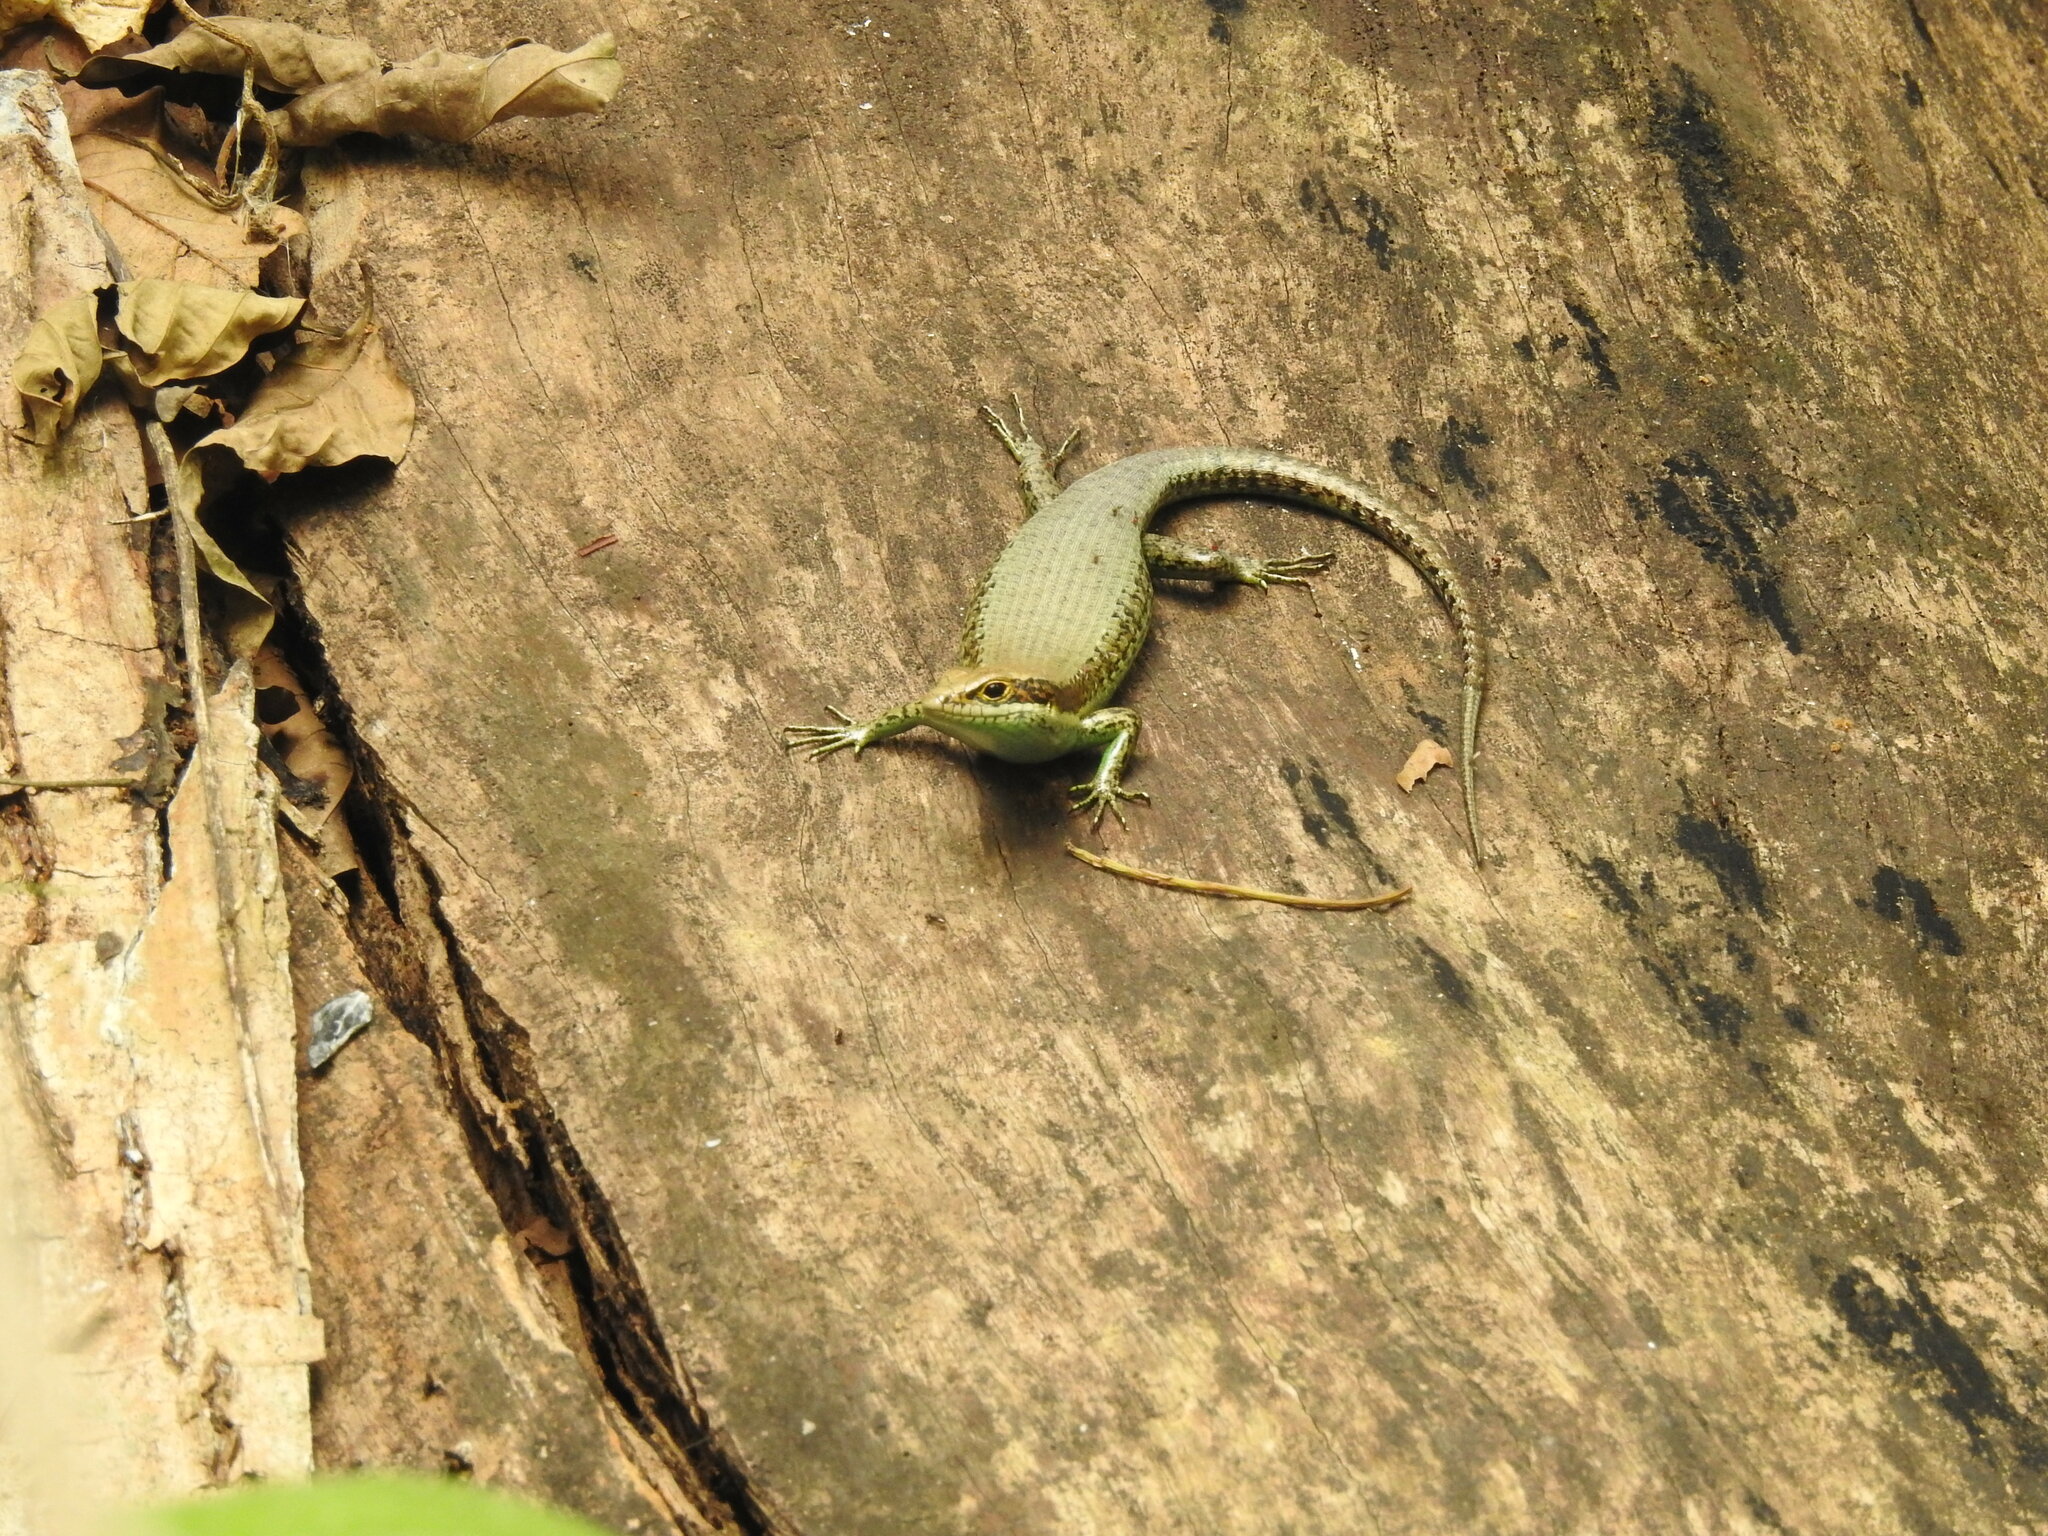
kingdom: Animalia
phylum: Chordata
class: Squamata
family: Scincidae
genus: Trachylepis
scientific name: Trachylepis polytropis
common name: Tropical mabuya
